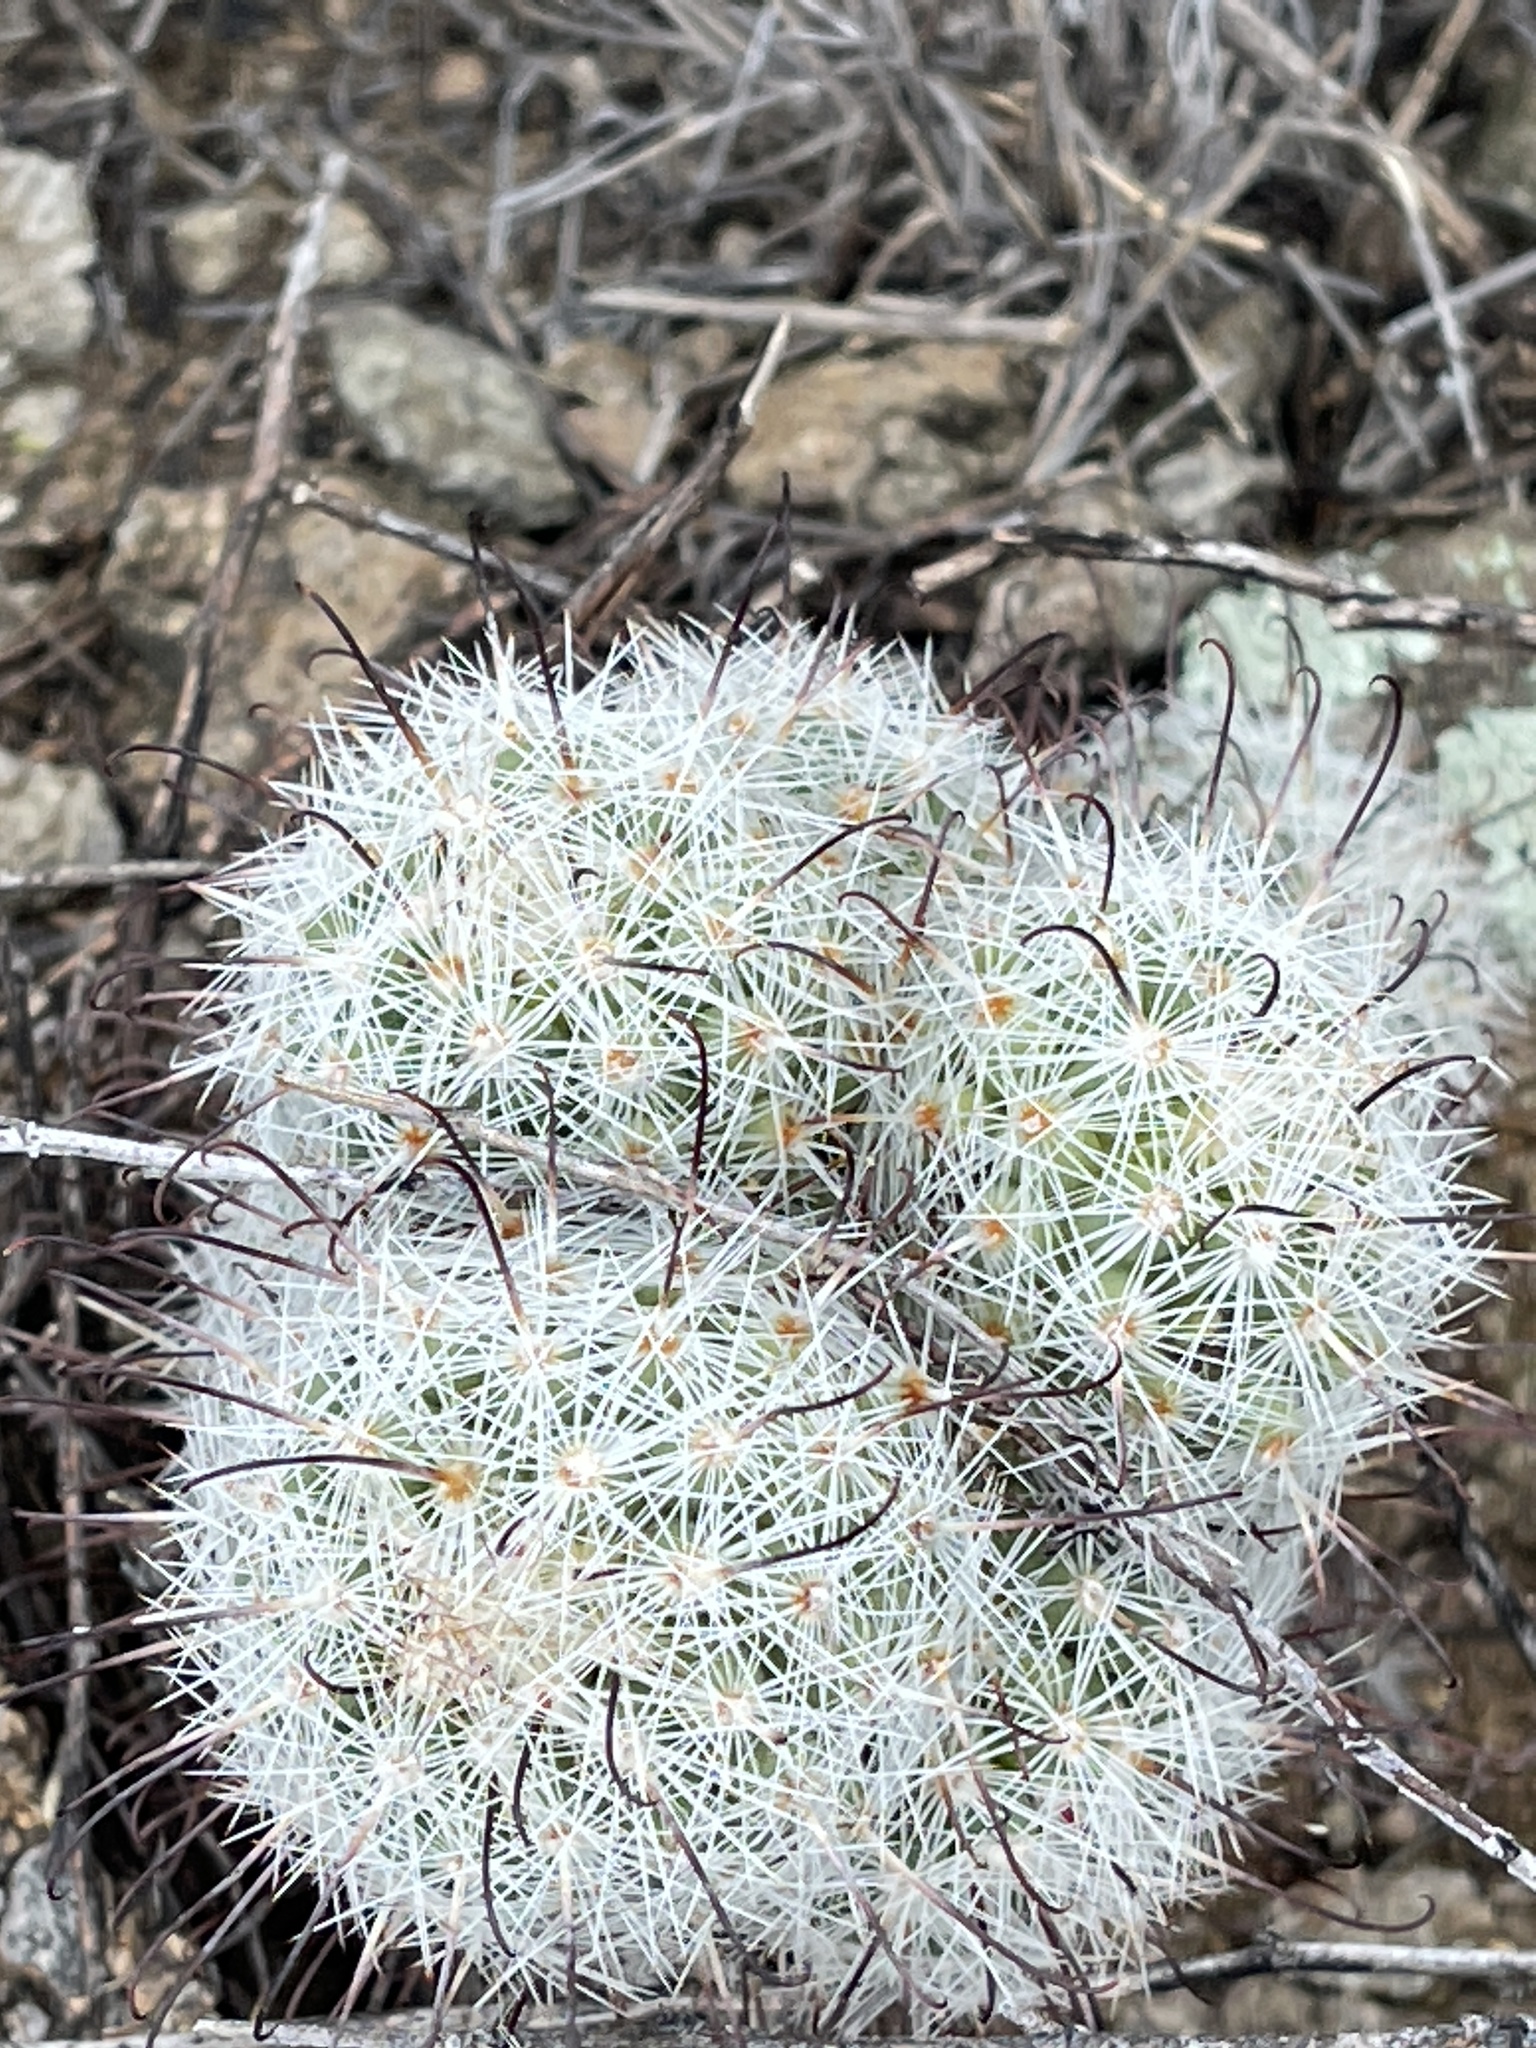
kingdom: Plantae
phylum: Tracheophyta
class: Magnoliopsida
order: Caryophyllales
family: Cactaceae
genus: Cochemiea
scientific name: Cochemiea grahamii
